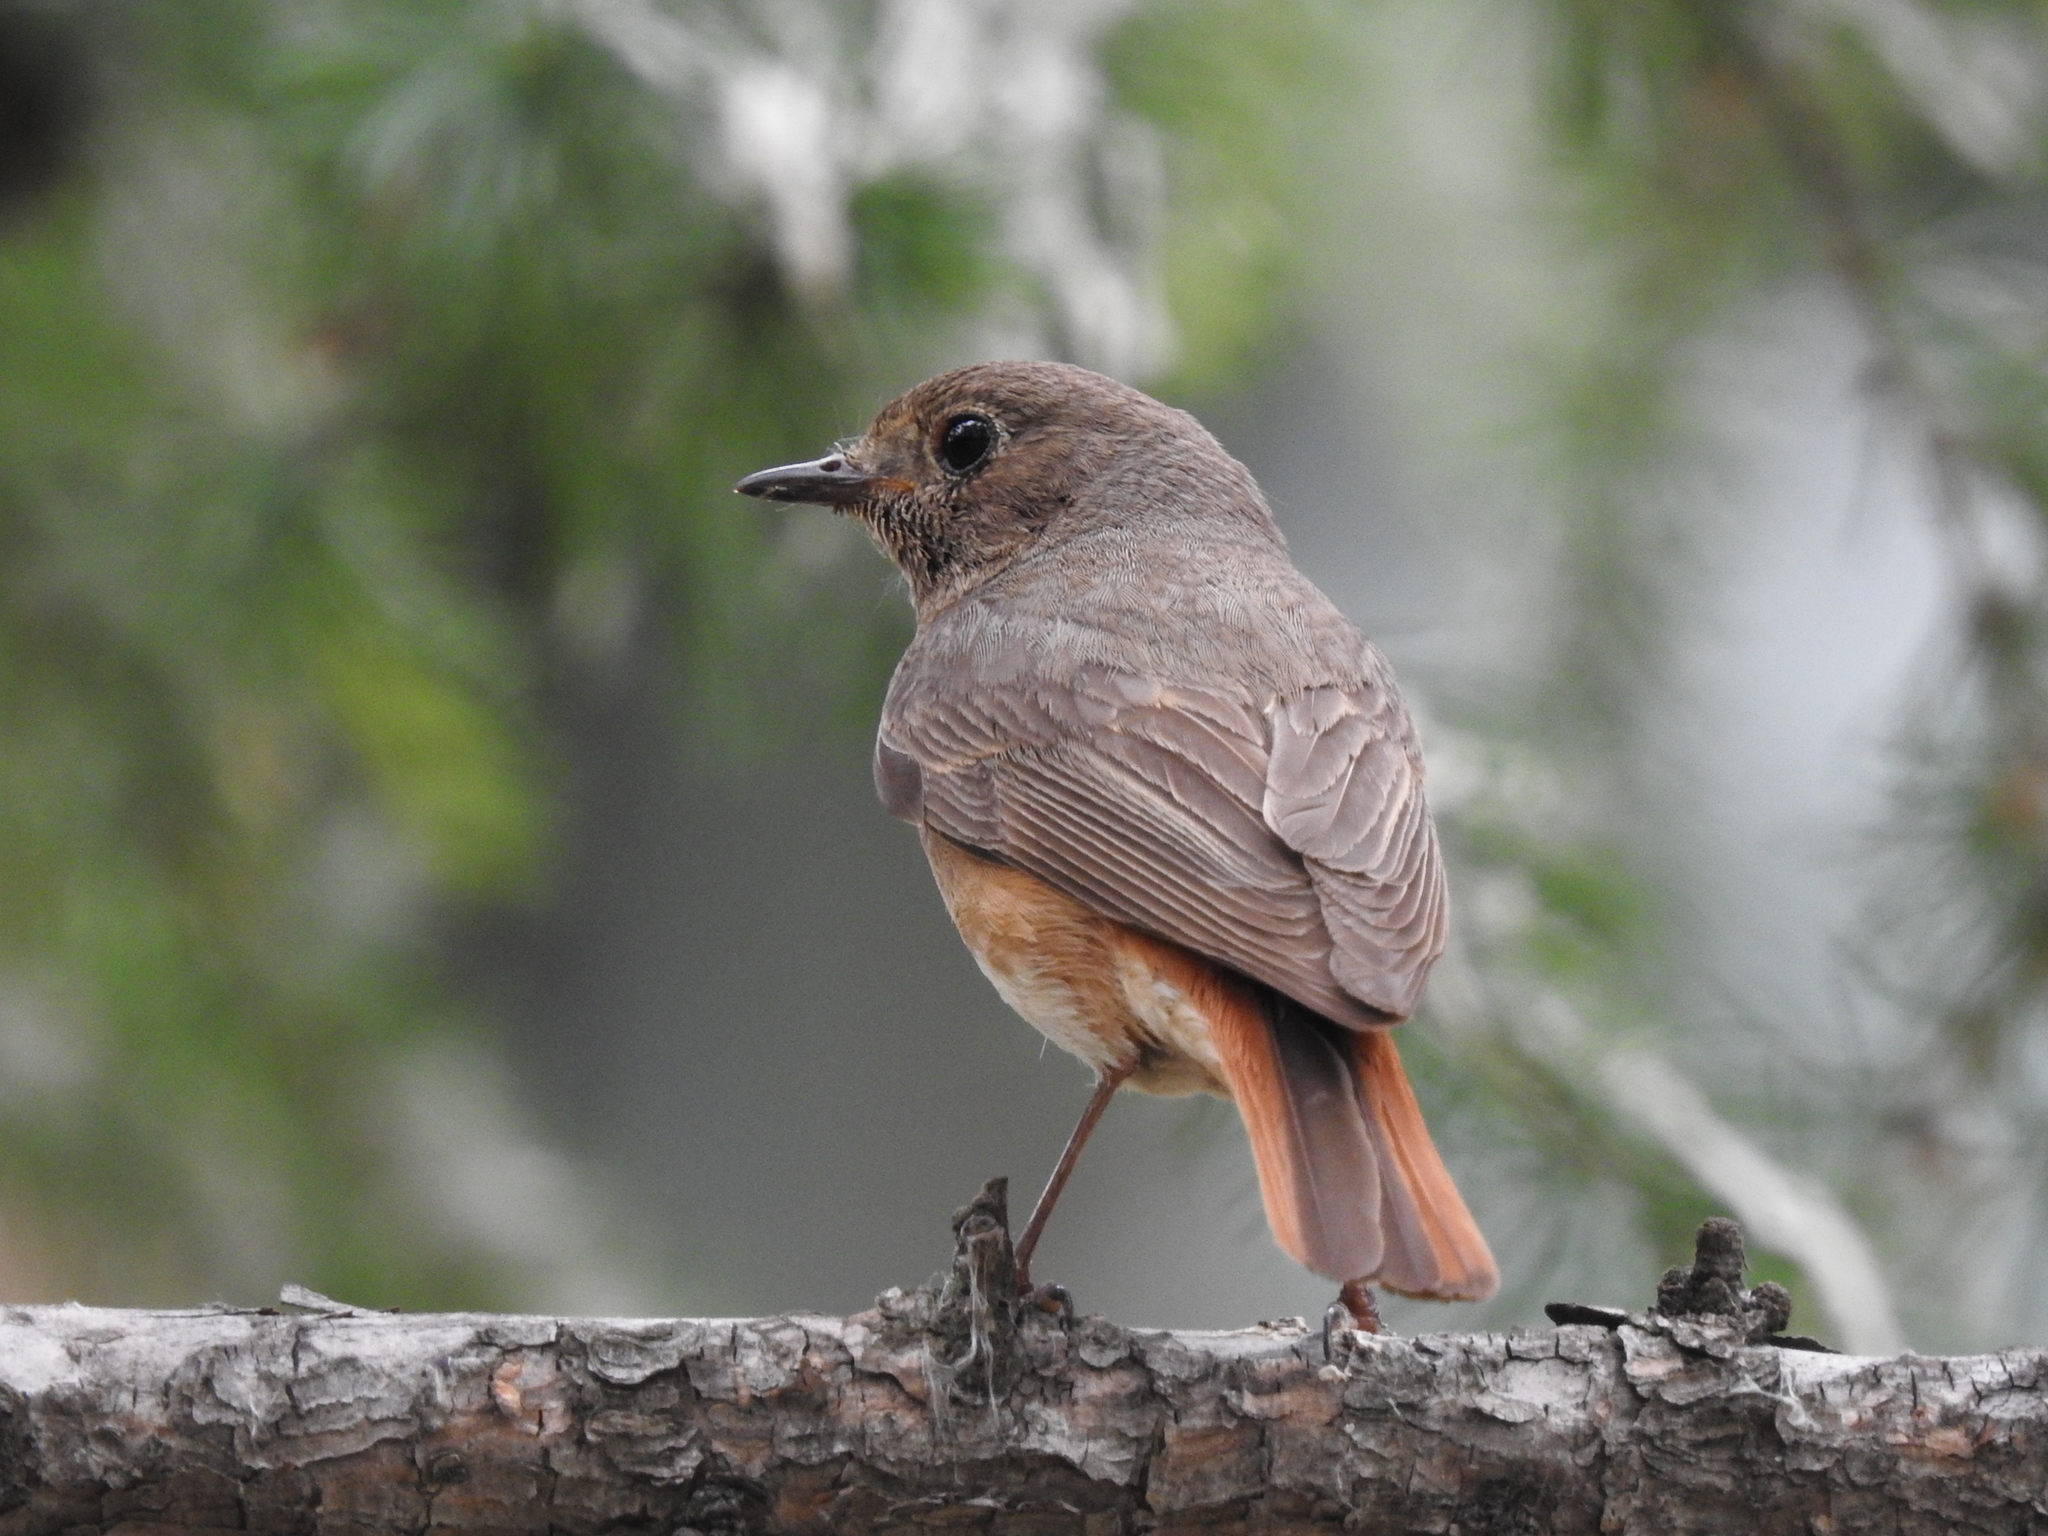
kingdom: Animalia
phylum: Chordata
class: Aves
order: Passeriformes
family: Muscicapidae
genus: Phoenicurus
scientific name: Phoenicurus phoenicurus
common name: Common redstart
